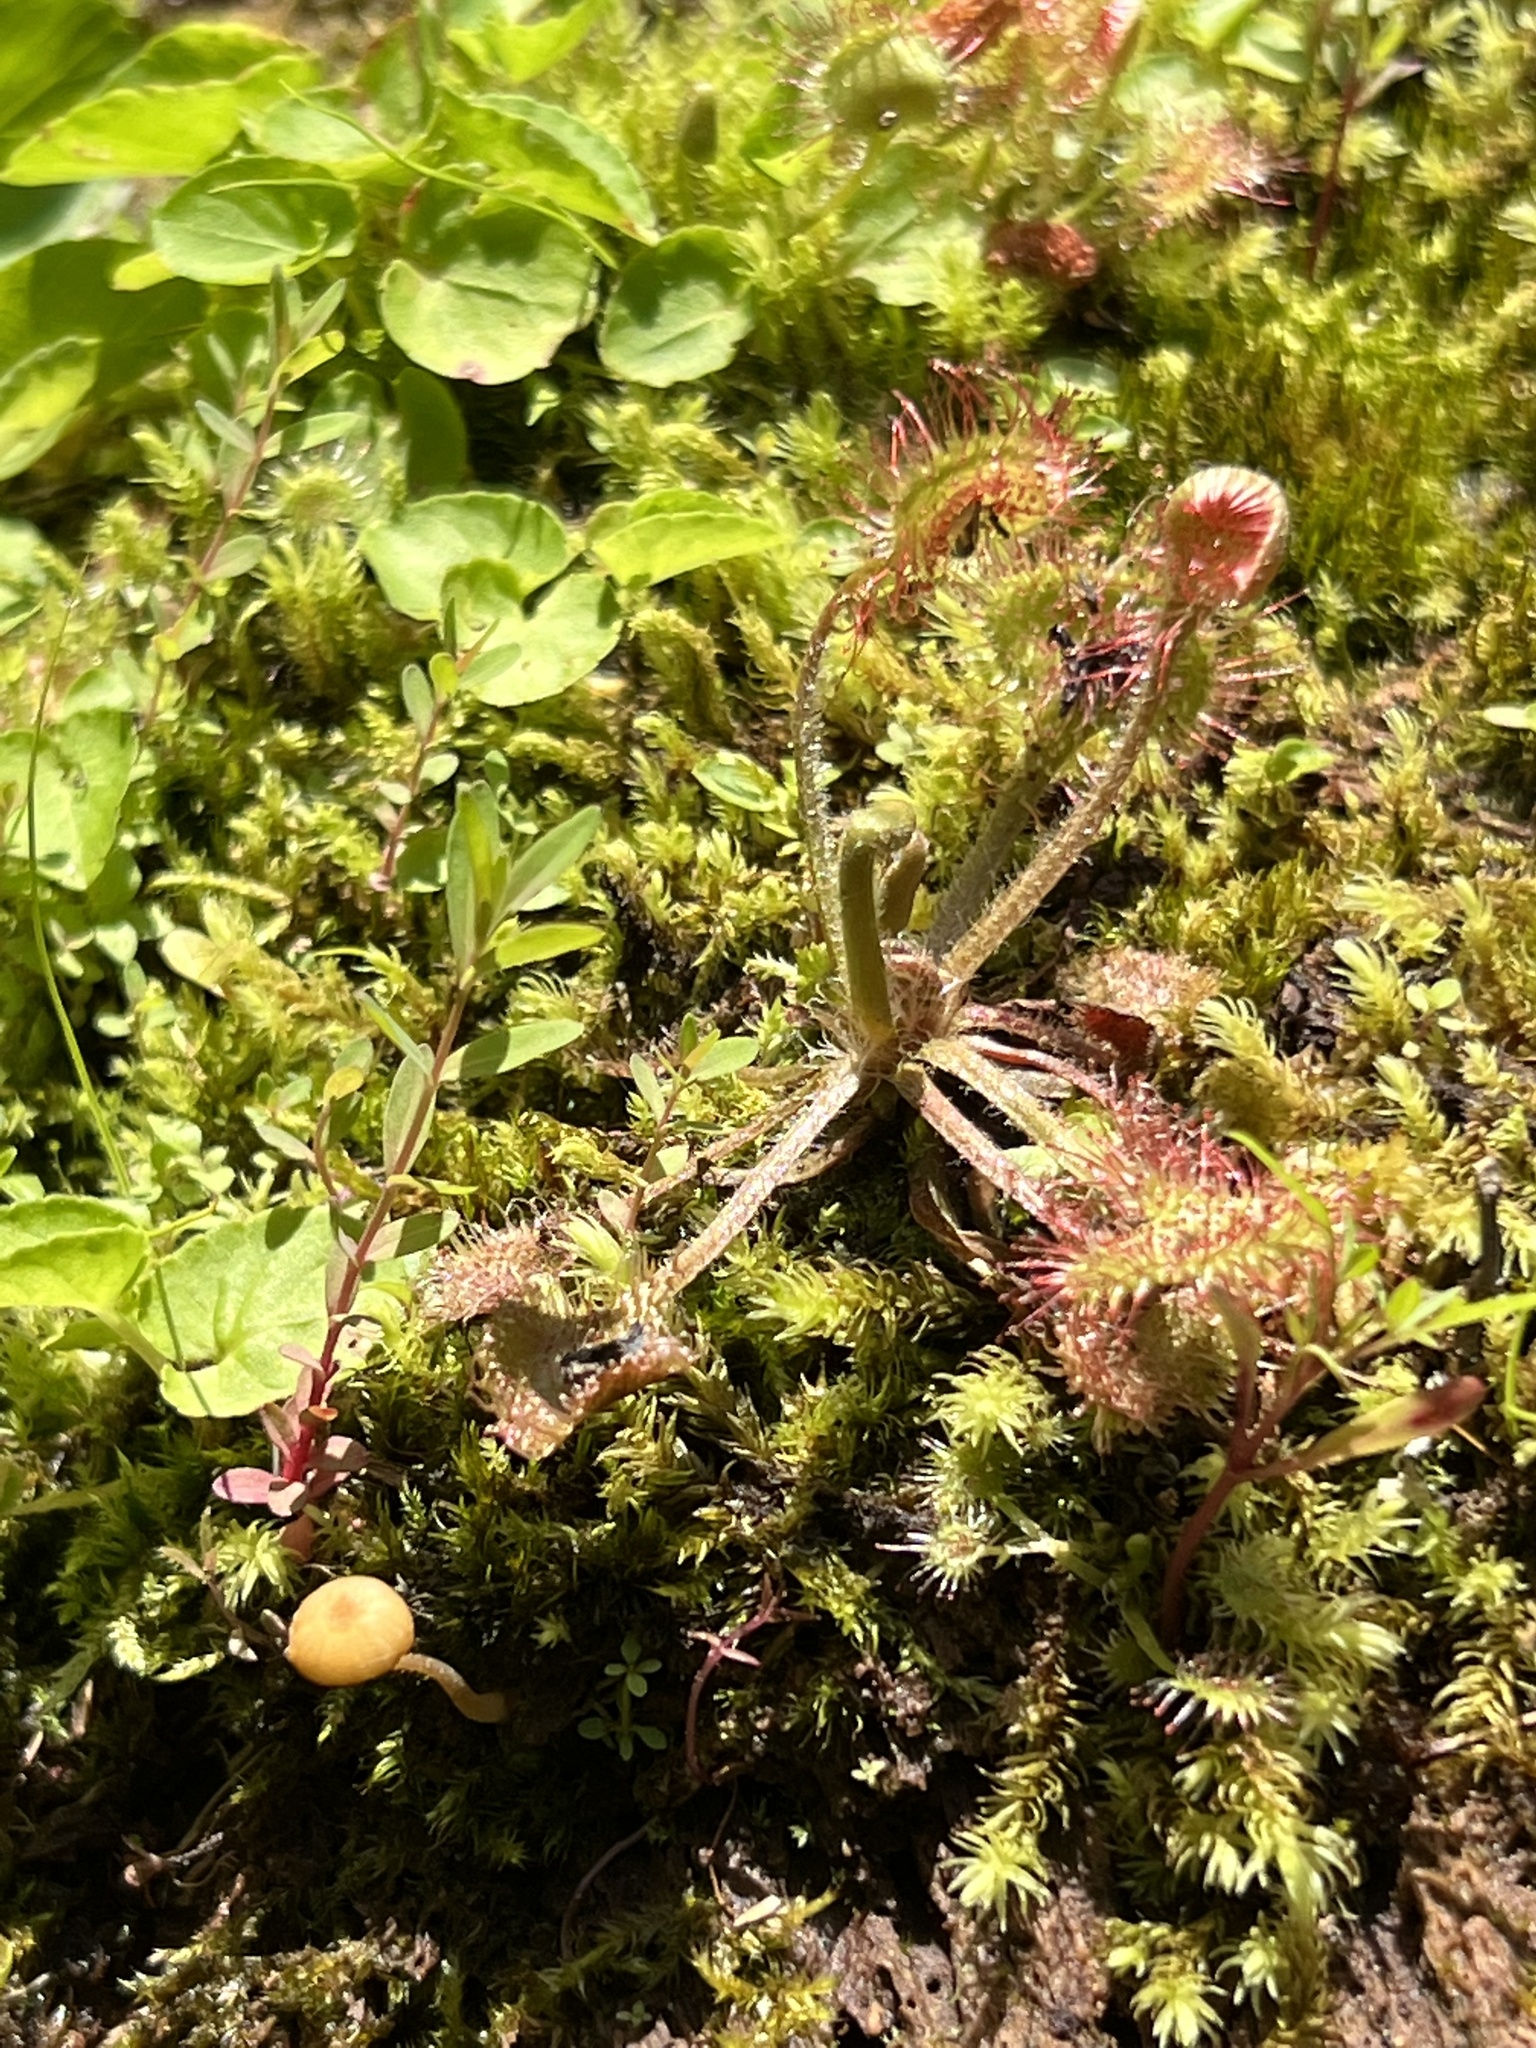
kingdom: Plantae
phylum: Tracheophyta
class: Magnoliopsida
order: Caryophyllales
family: Droseraceae
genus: Drosera
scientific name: Drosera rotundifolia
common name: Round-leaved sundew
